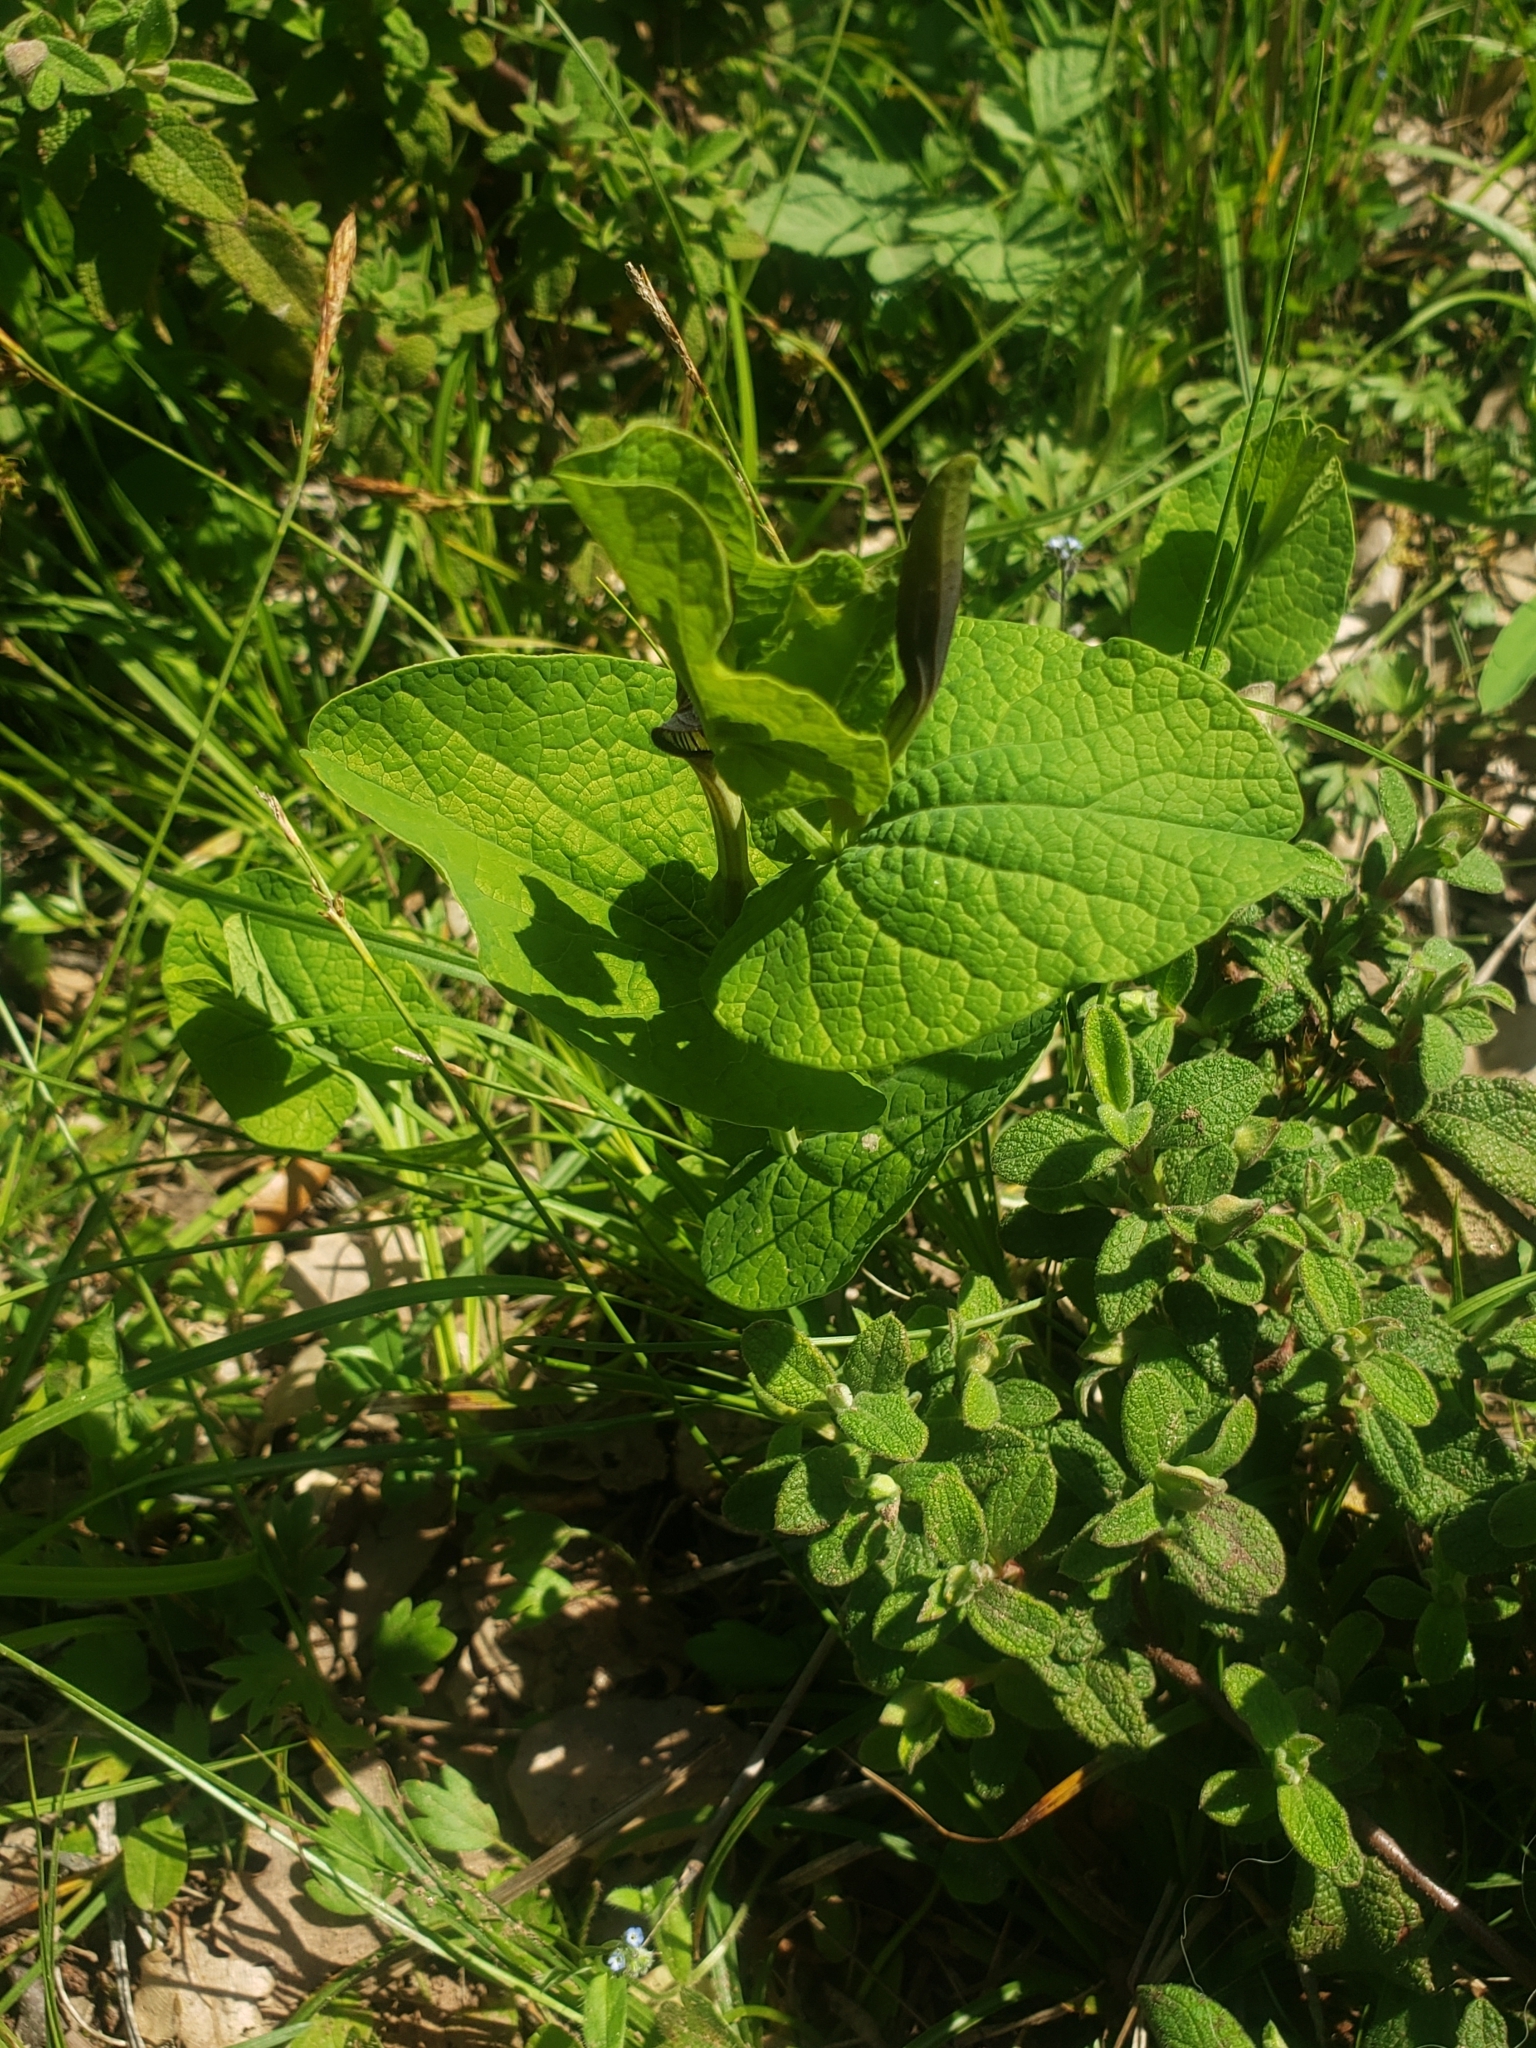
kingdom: Plantae
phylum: Tracheophyta
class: Magnoliopsida
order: Piperales
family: Aristolochiaceae
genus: Aristolochia
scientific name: Aristolochia rotunda
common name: Smearwort
